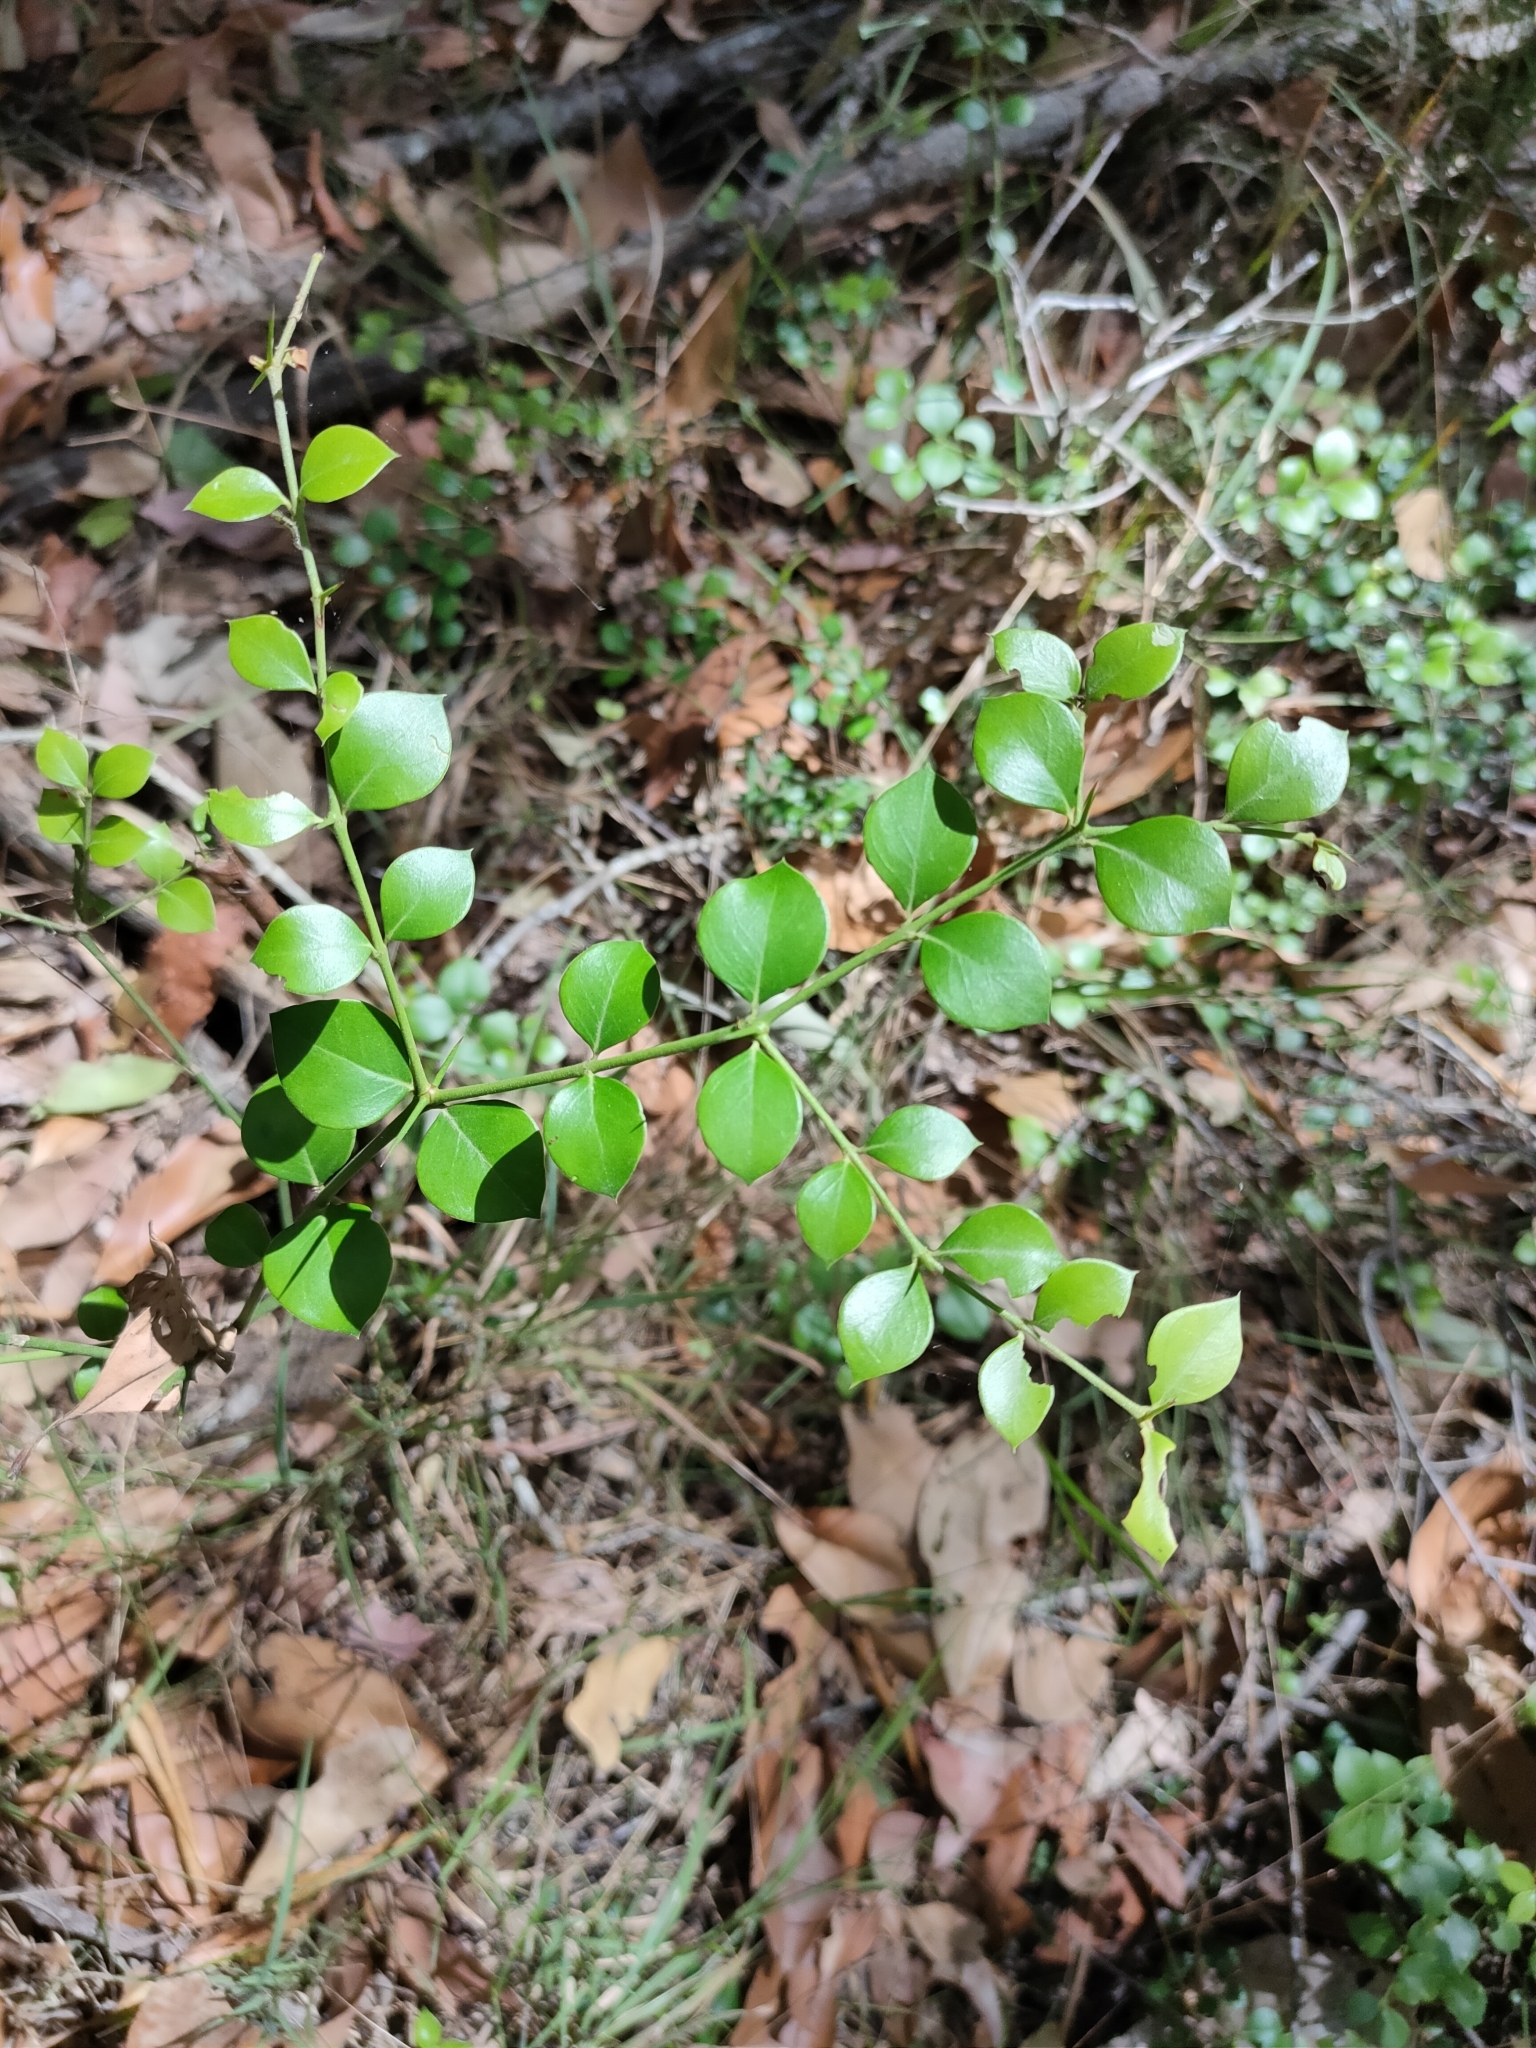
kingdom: Plantae
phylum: Tracheophyta
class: Magnoliopsida
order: Gentianales
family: Apocynaceae
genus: Carissa
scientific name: Carissa ovata
